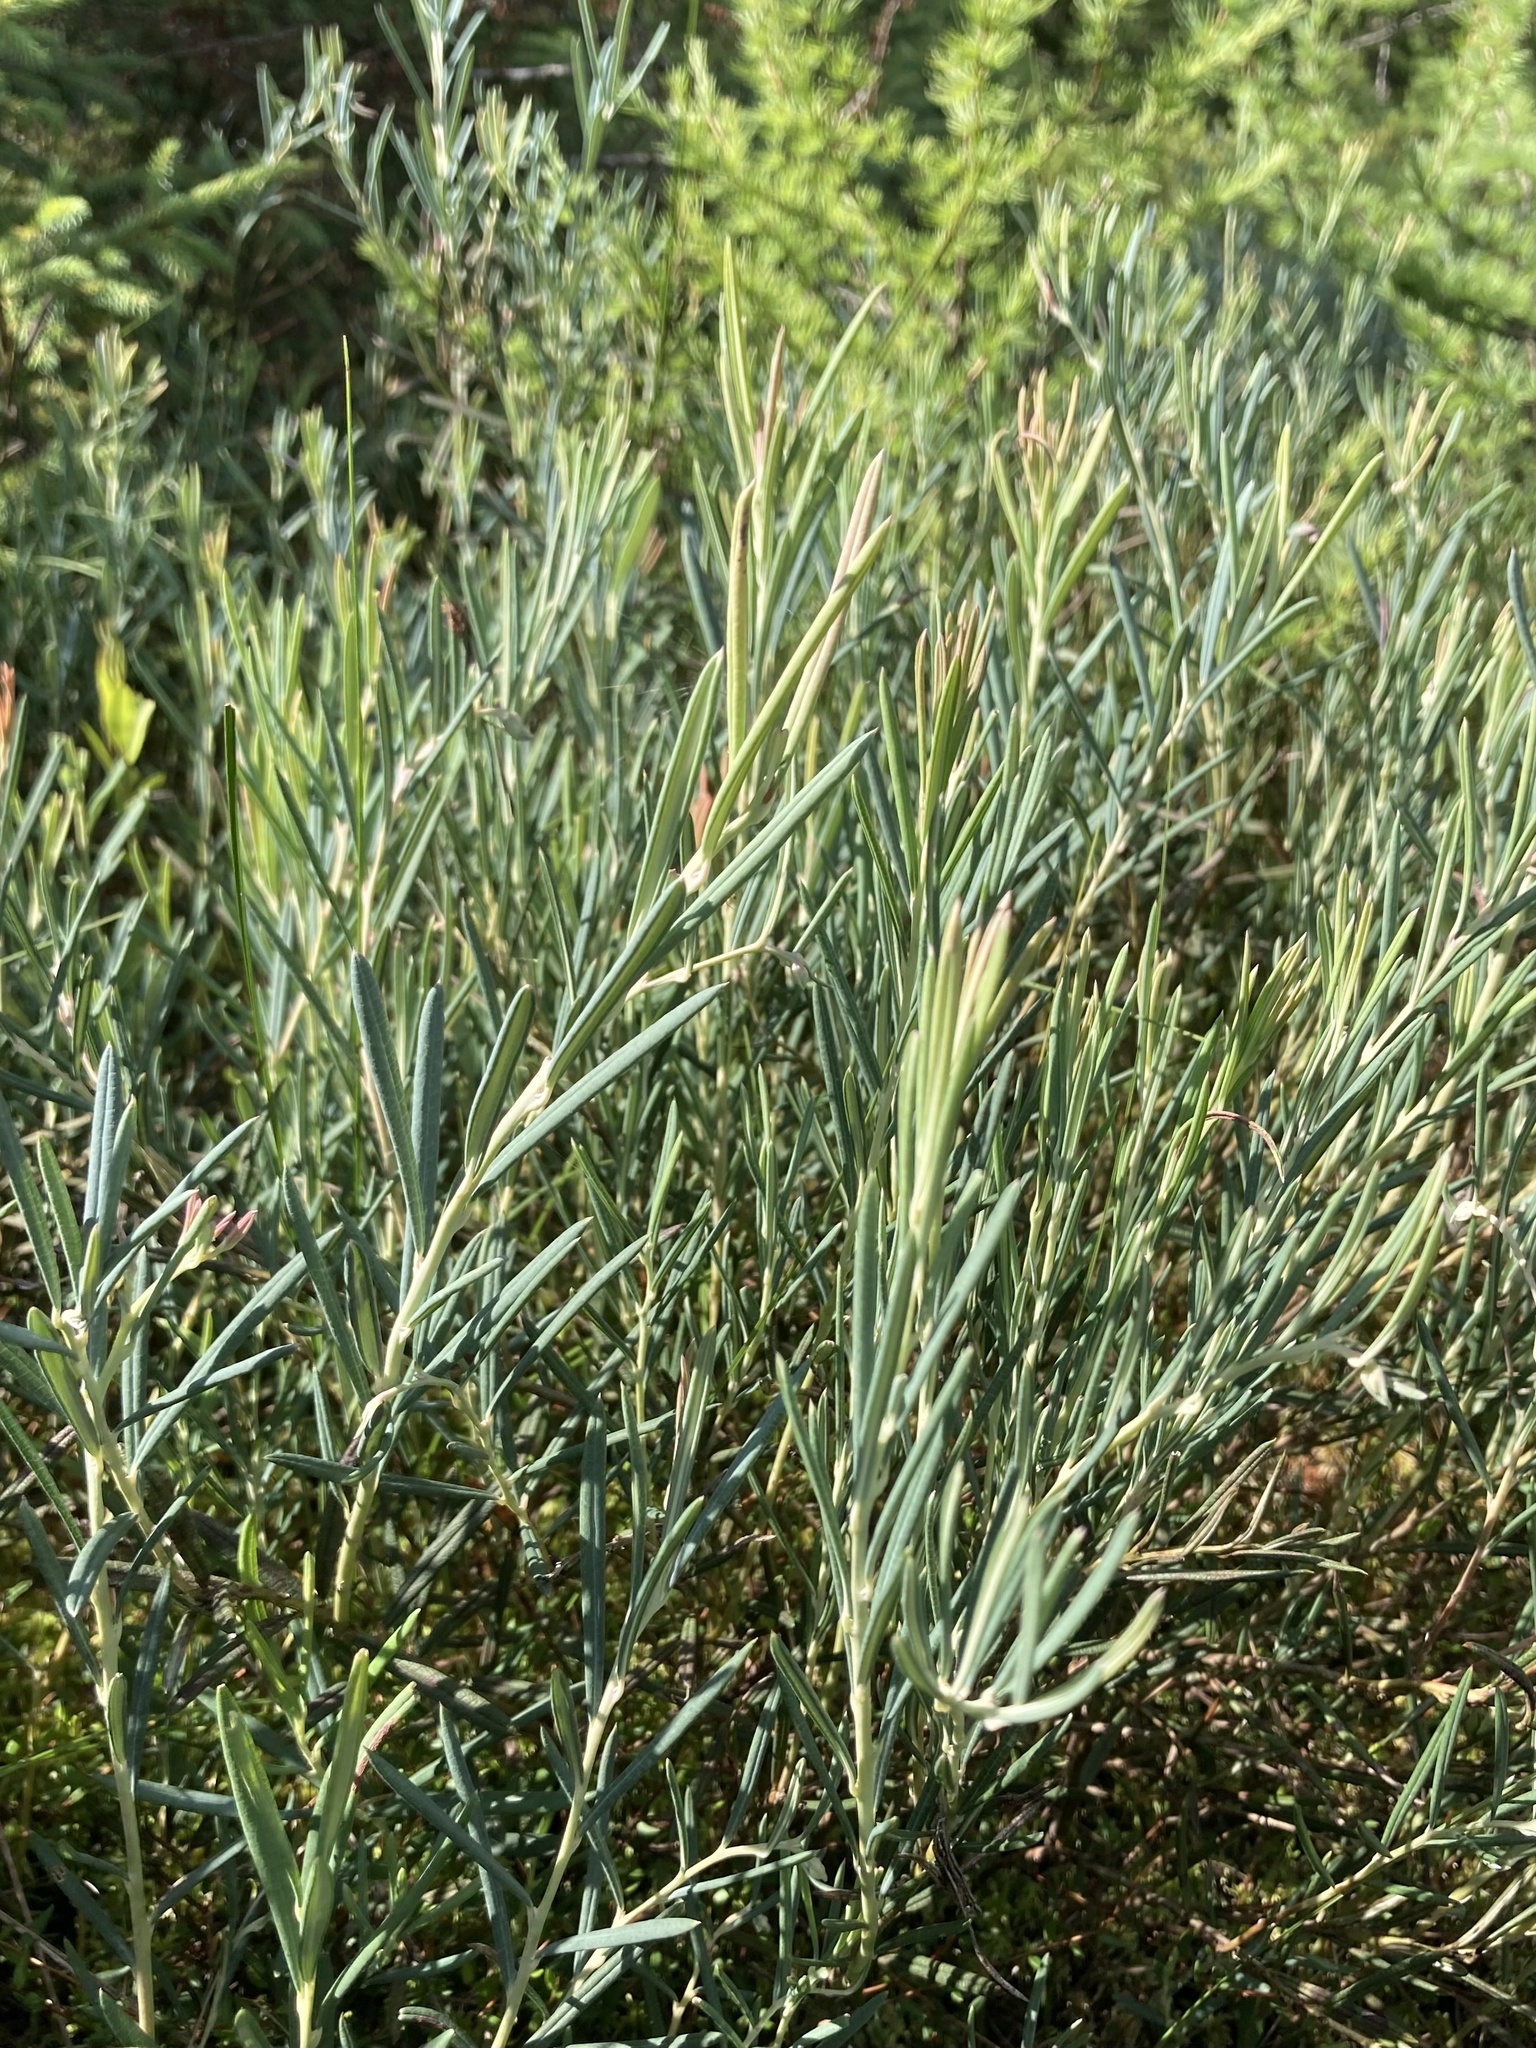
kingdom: Plantae
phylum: Tracheophyta
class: Magnoliopsida
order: Ericales
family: Ericaceae
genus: Andromeda
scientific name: Andromeda polifolia
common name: Bog-rosemary
